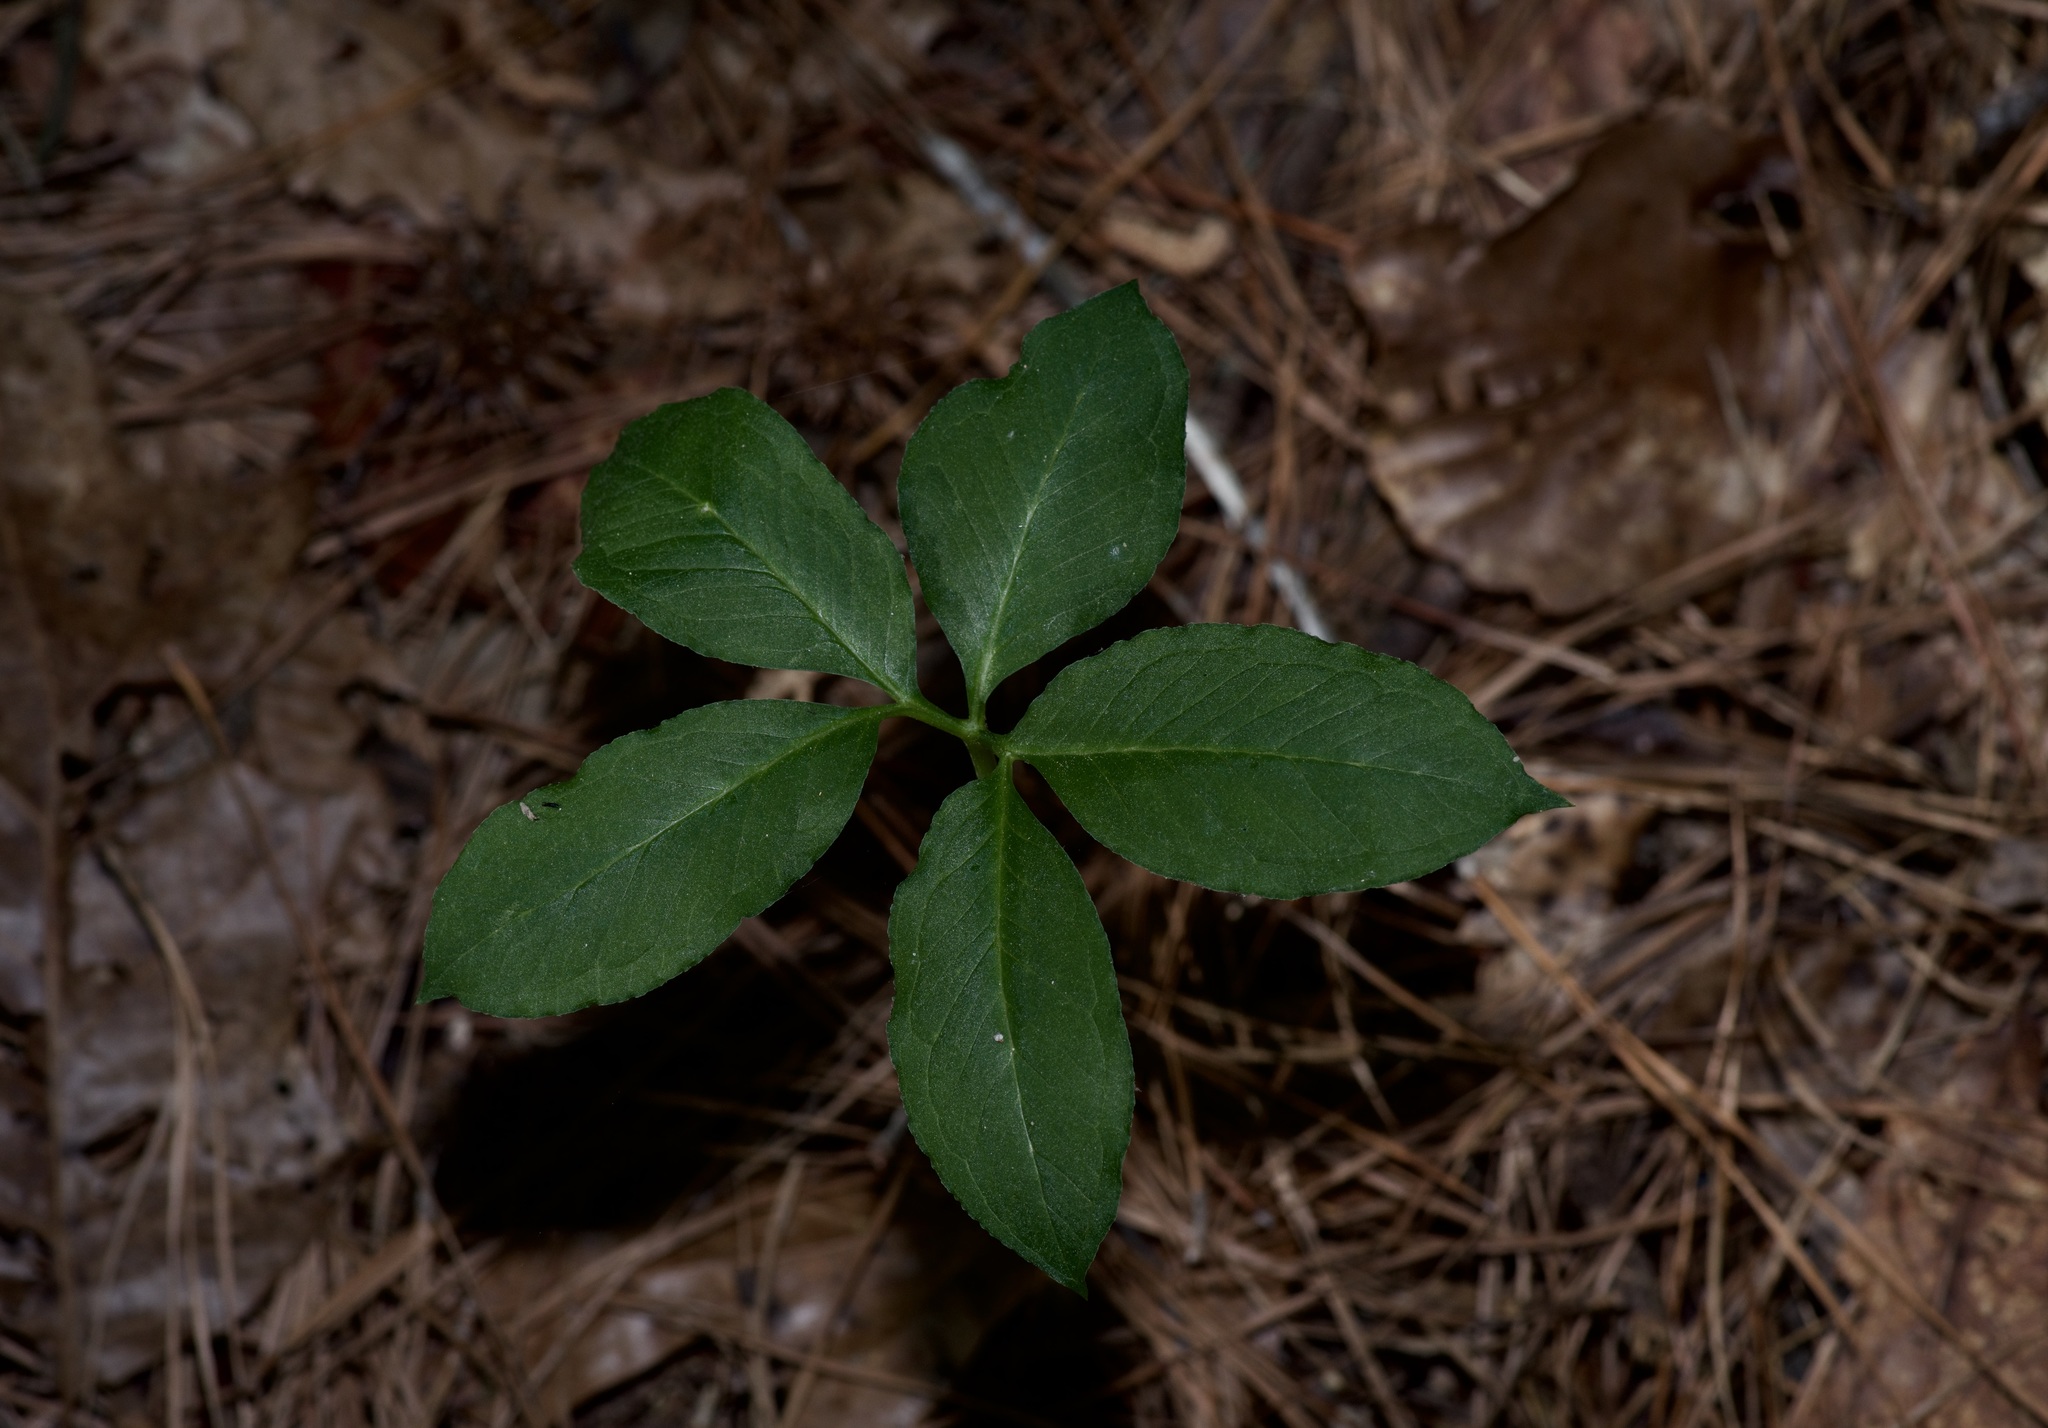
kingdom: Plantae
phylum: Tracheophyta
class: Liliopsida
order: Alismatales
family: Araceae
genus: Arisaema
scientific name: Arisaema dracontium
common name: Dragon-arum
